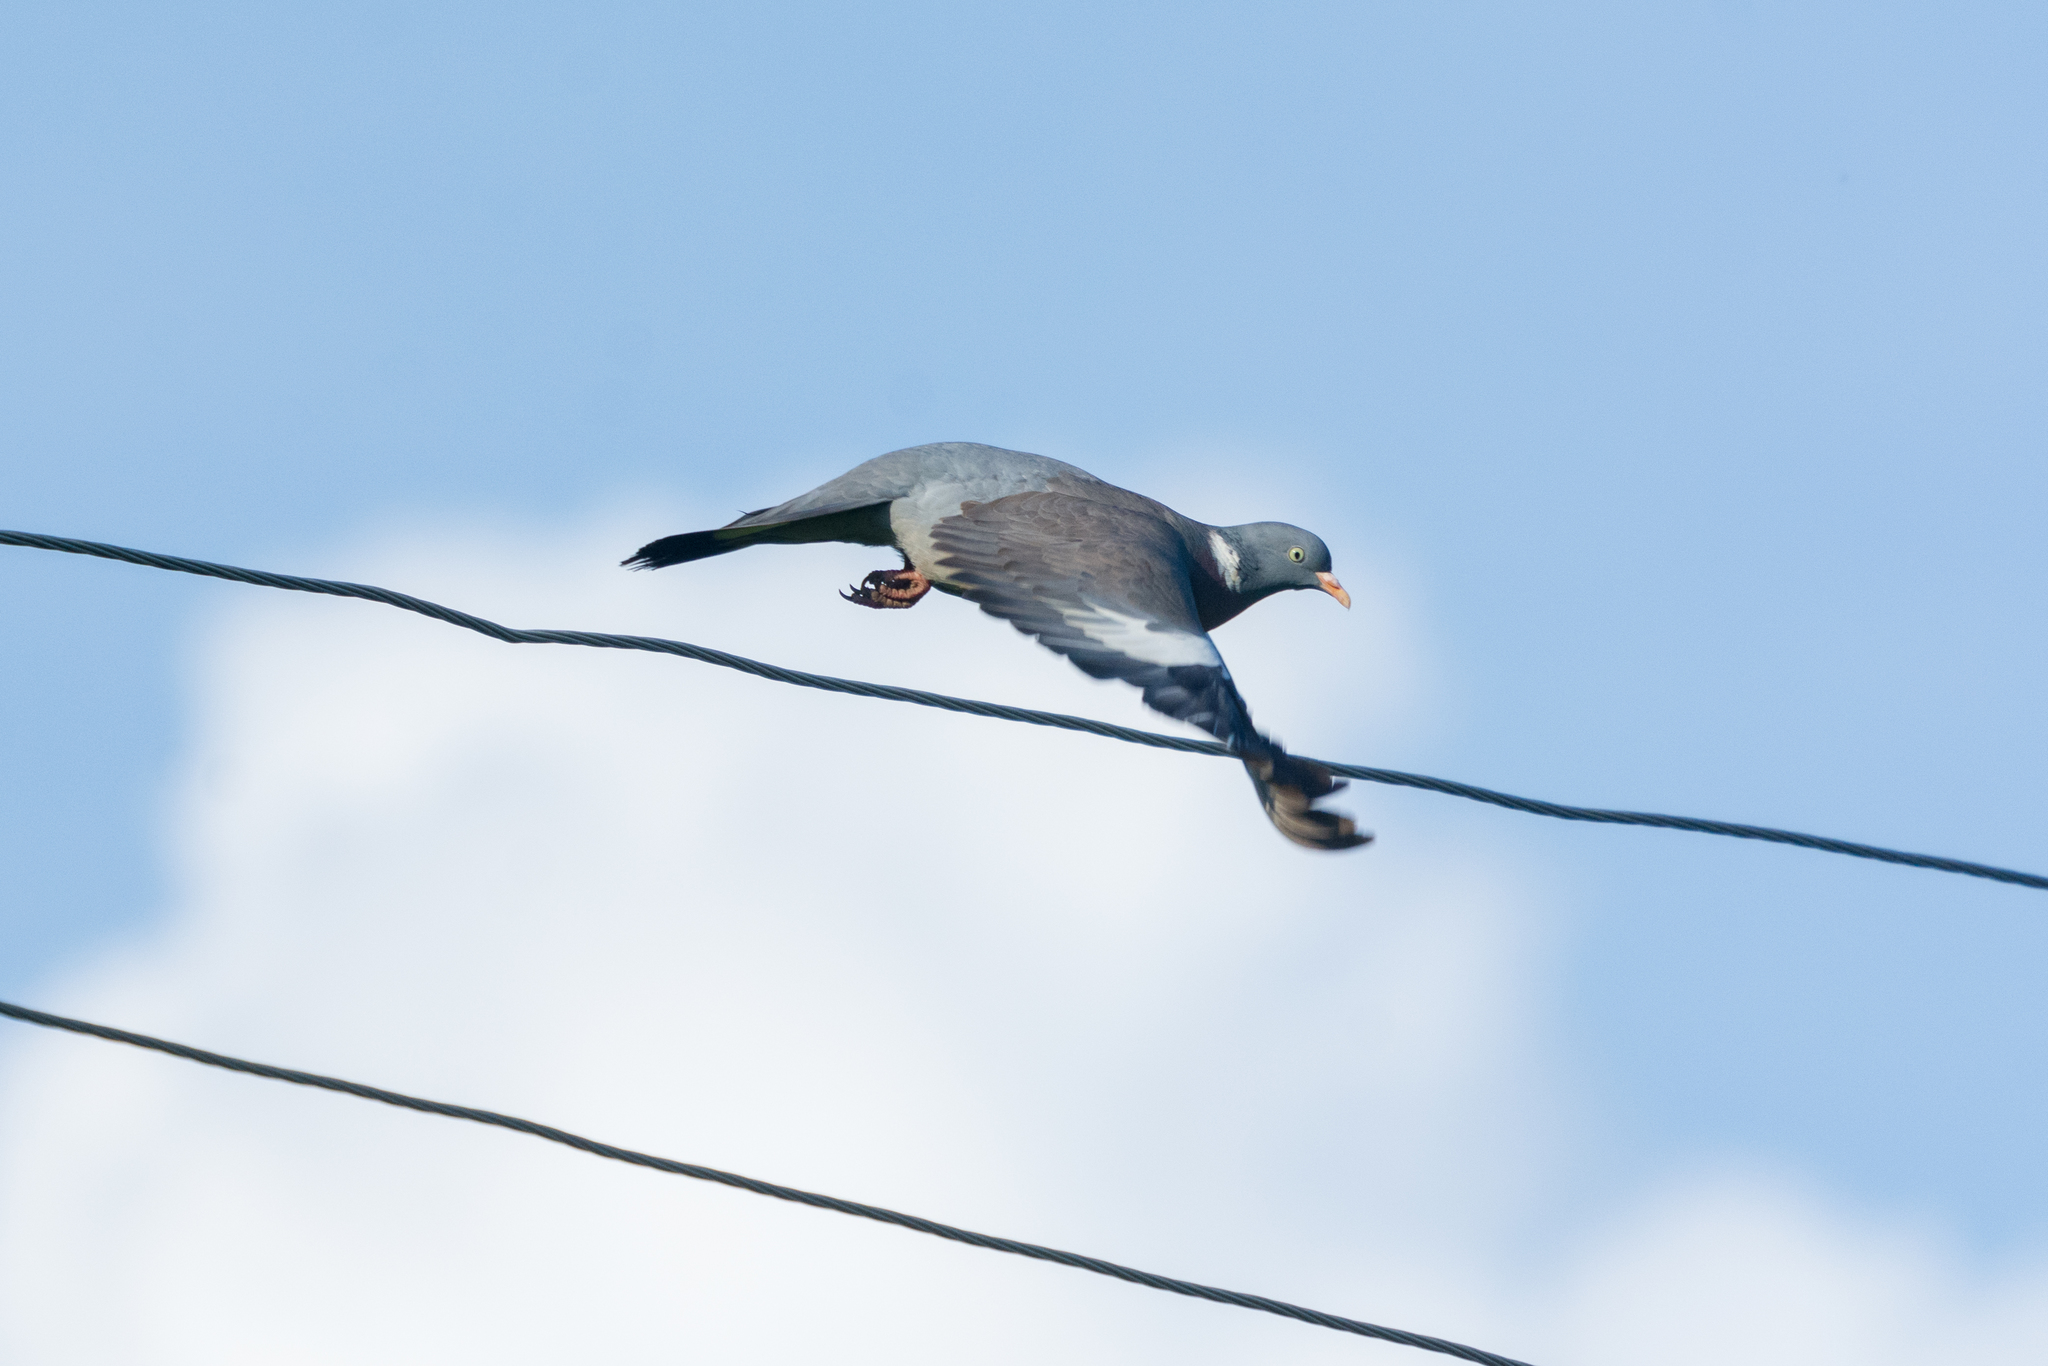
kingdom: Animalia
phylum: Chordata
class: Aves
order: Columbiformes
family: Columbidae
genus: Columba
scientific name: Columba palumbus
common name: Common wood pigeon
